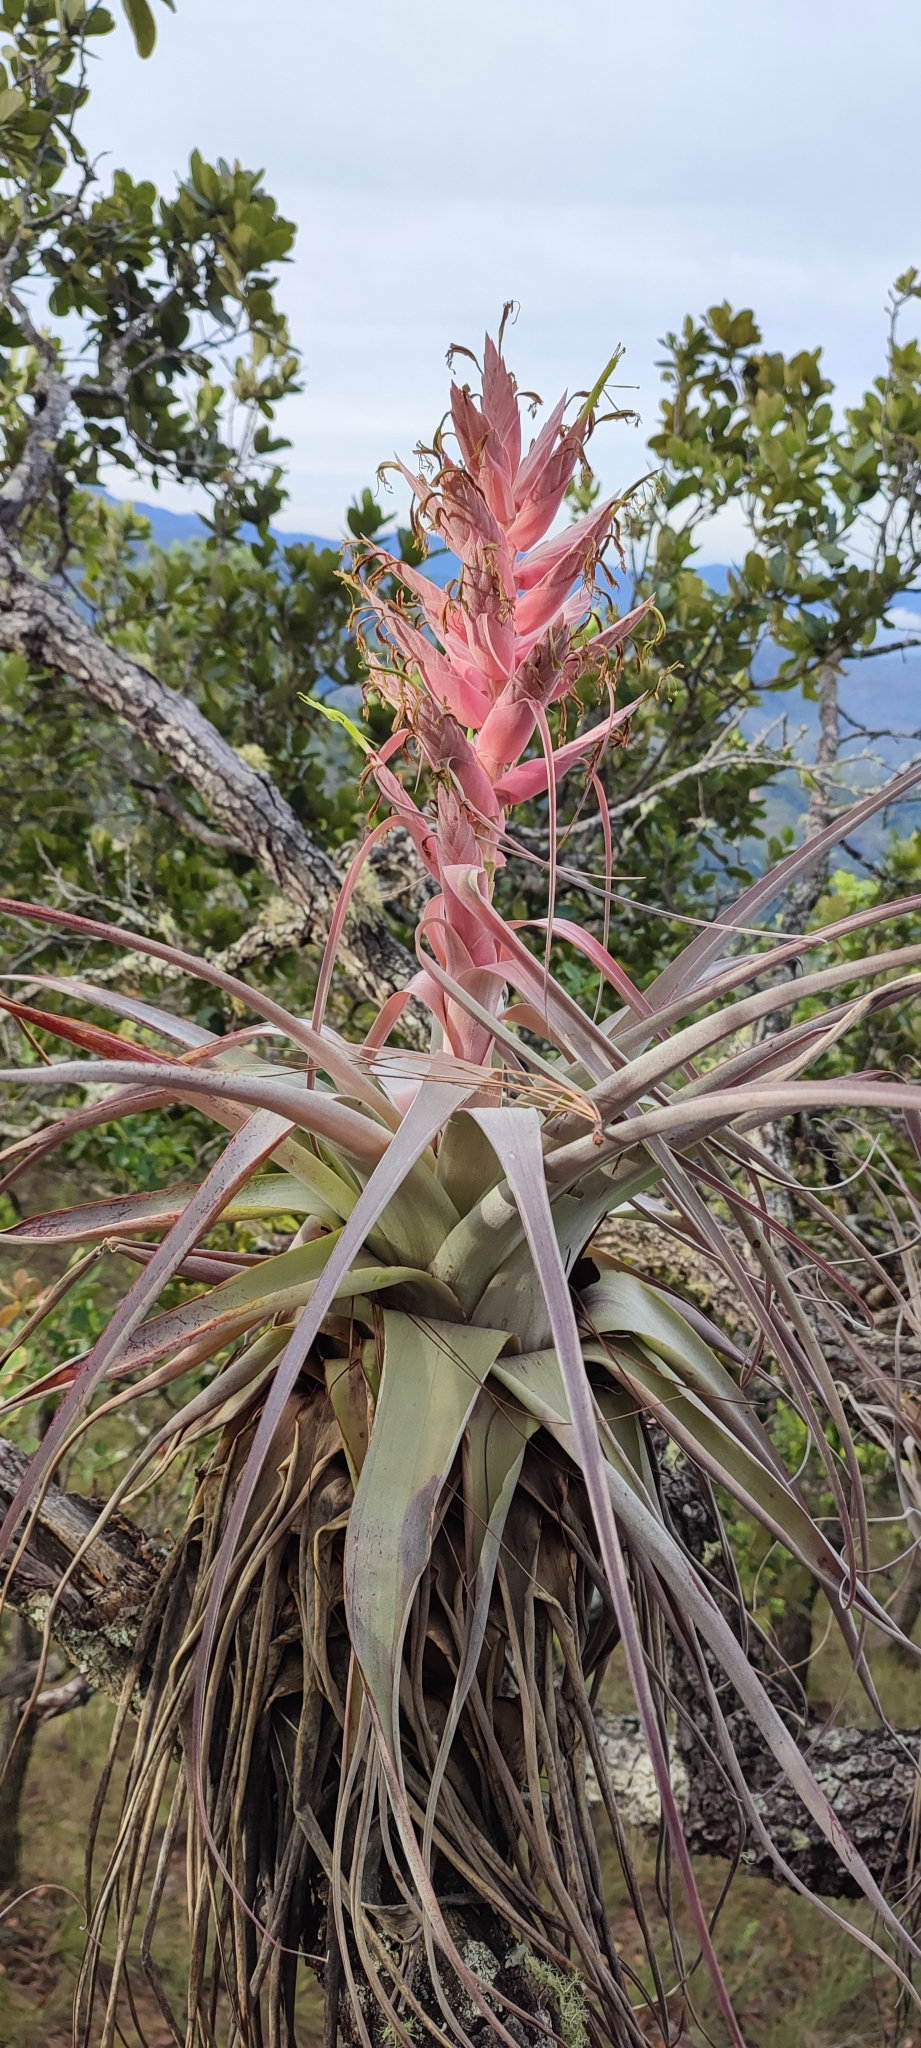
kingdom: Plantae
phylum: Tracheophyta
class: Liliopsida
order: Poales
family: Bromeliaceae
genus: Tillandsia
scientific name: Tillandsia bourgaei
